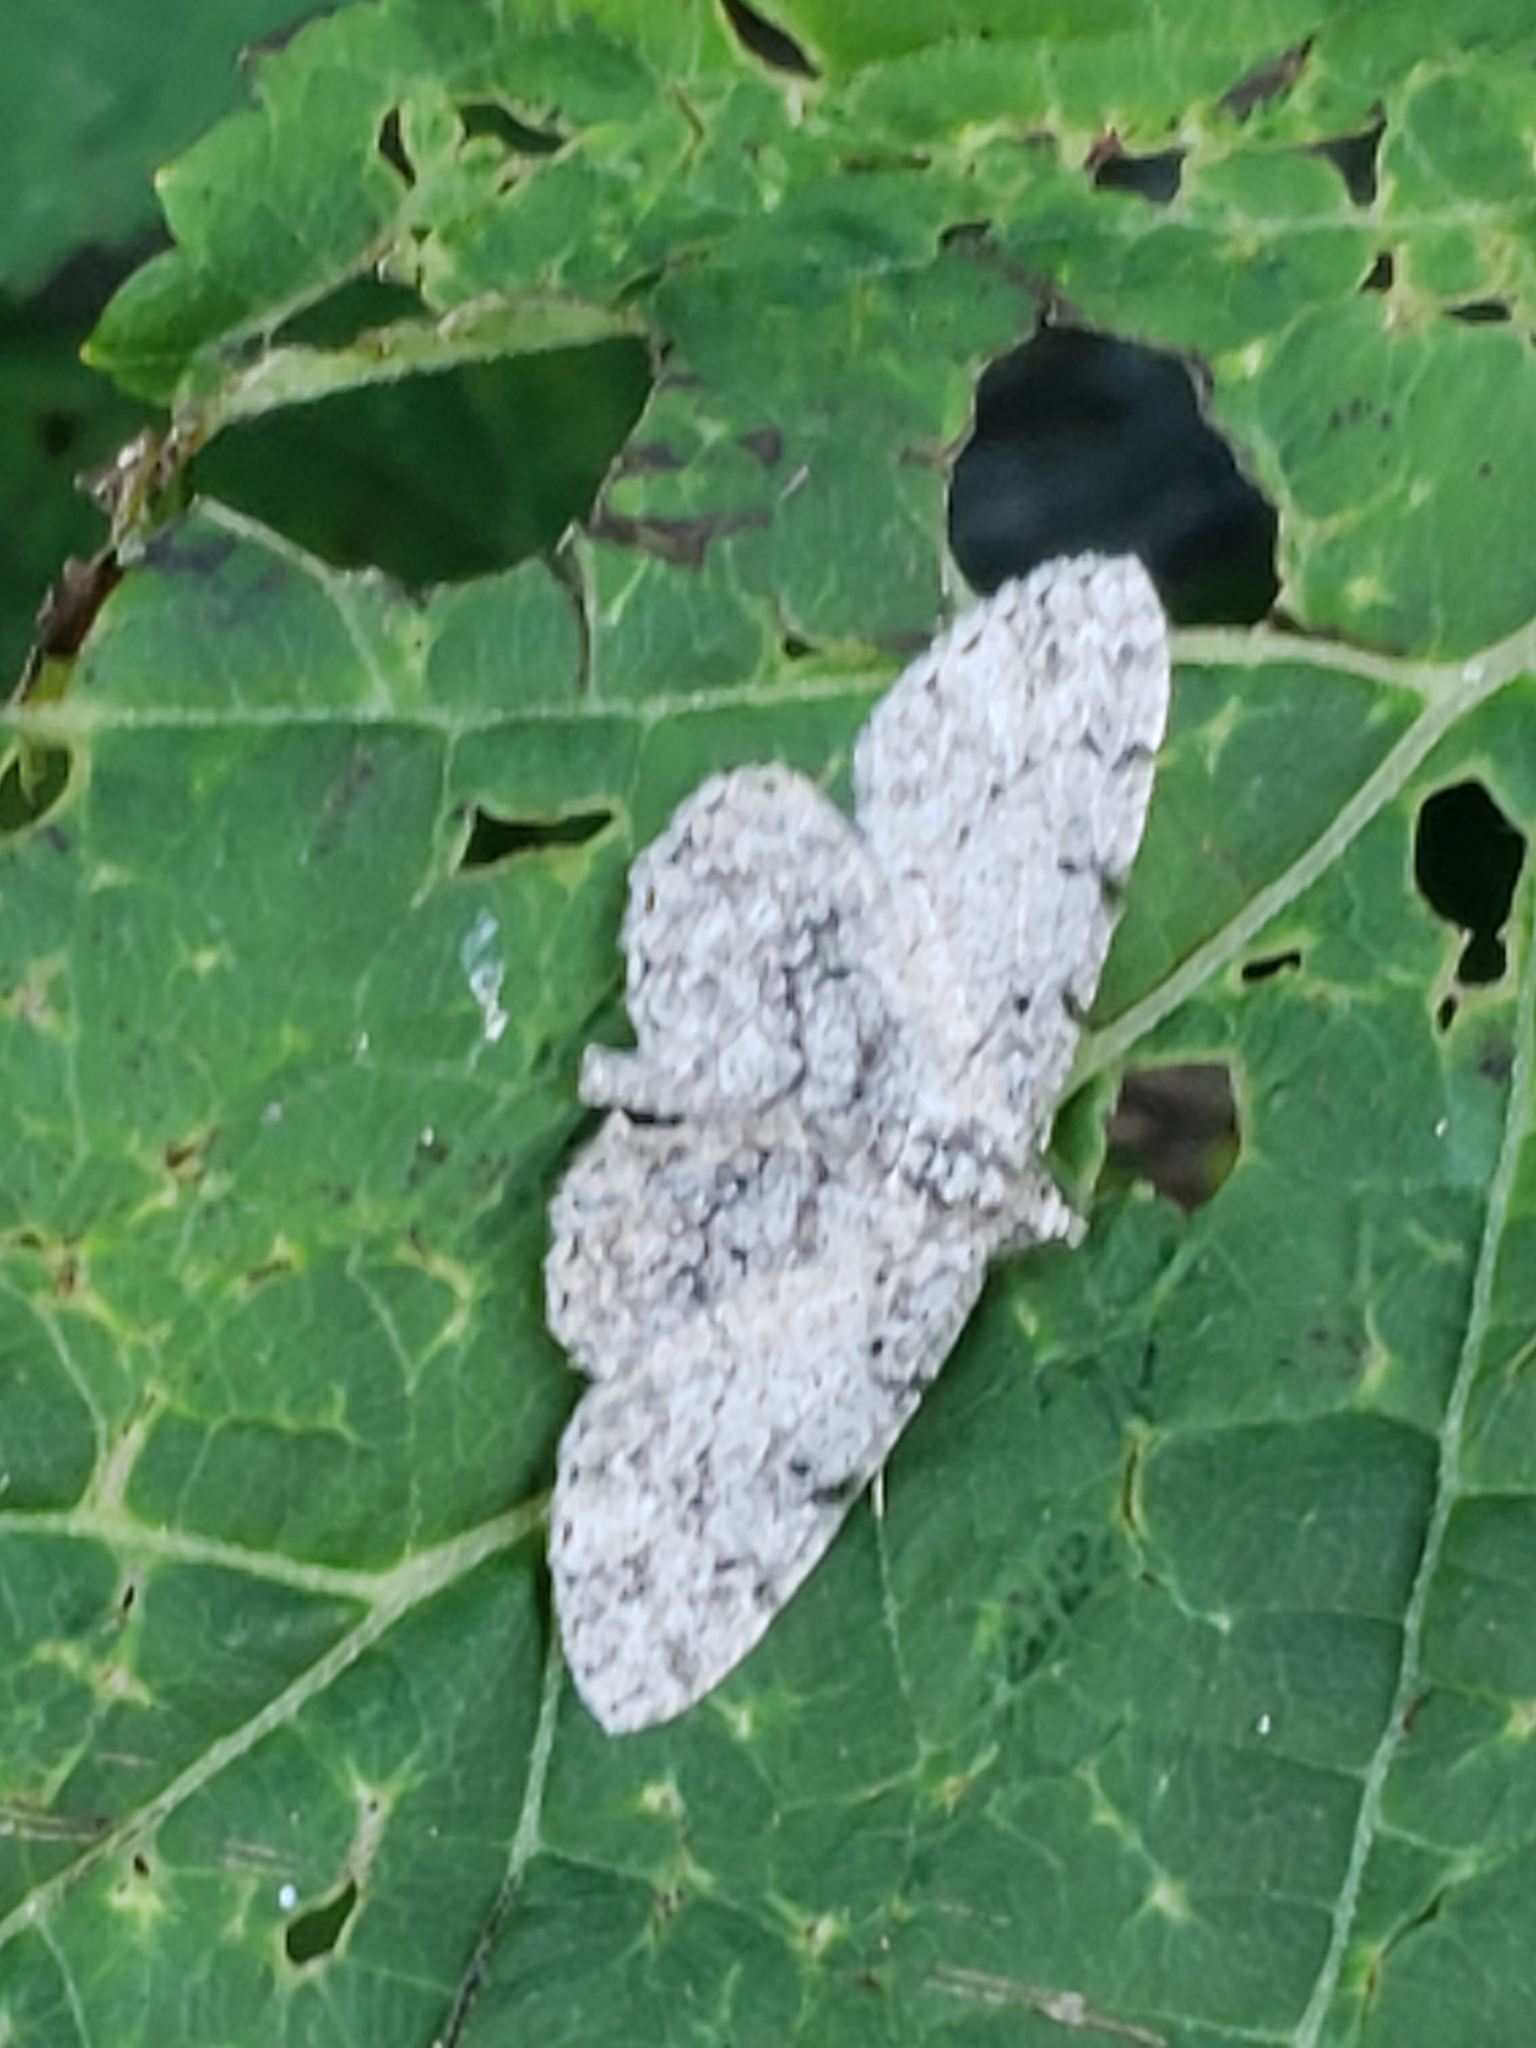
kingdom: Animalia
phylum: Arthropoda
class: Insecta
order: Lepidoptera
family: Geometridae
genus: Protoboarmia
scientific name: Protoboarmia porcelaria
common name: Porcelain gray
